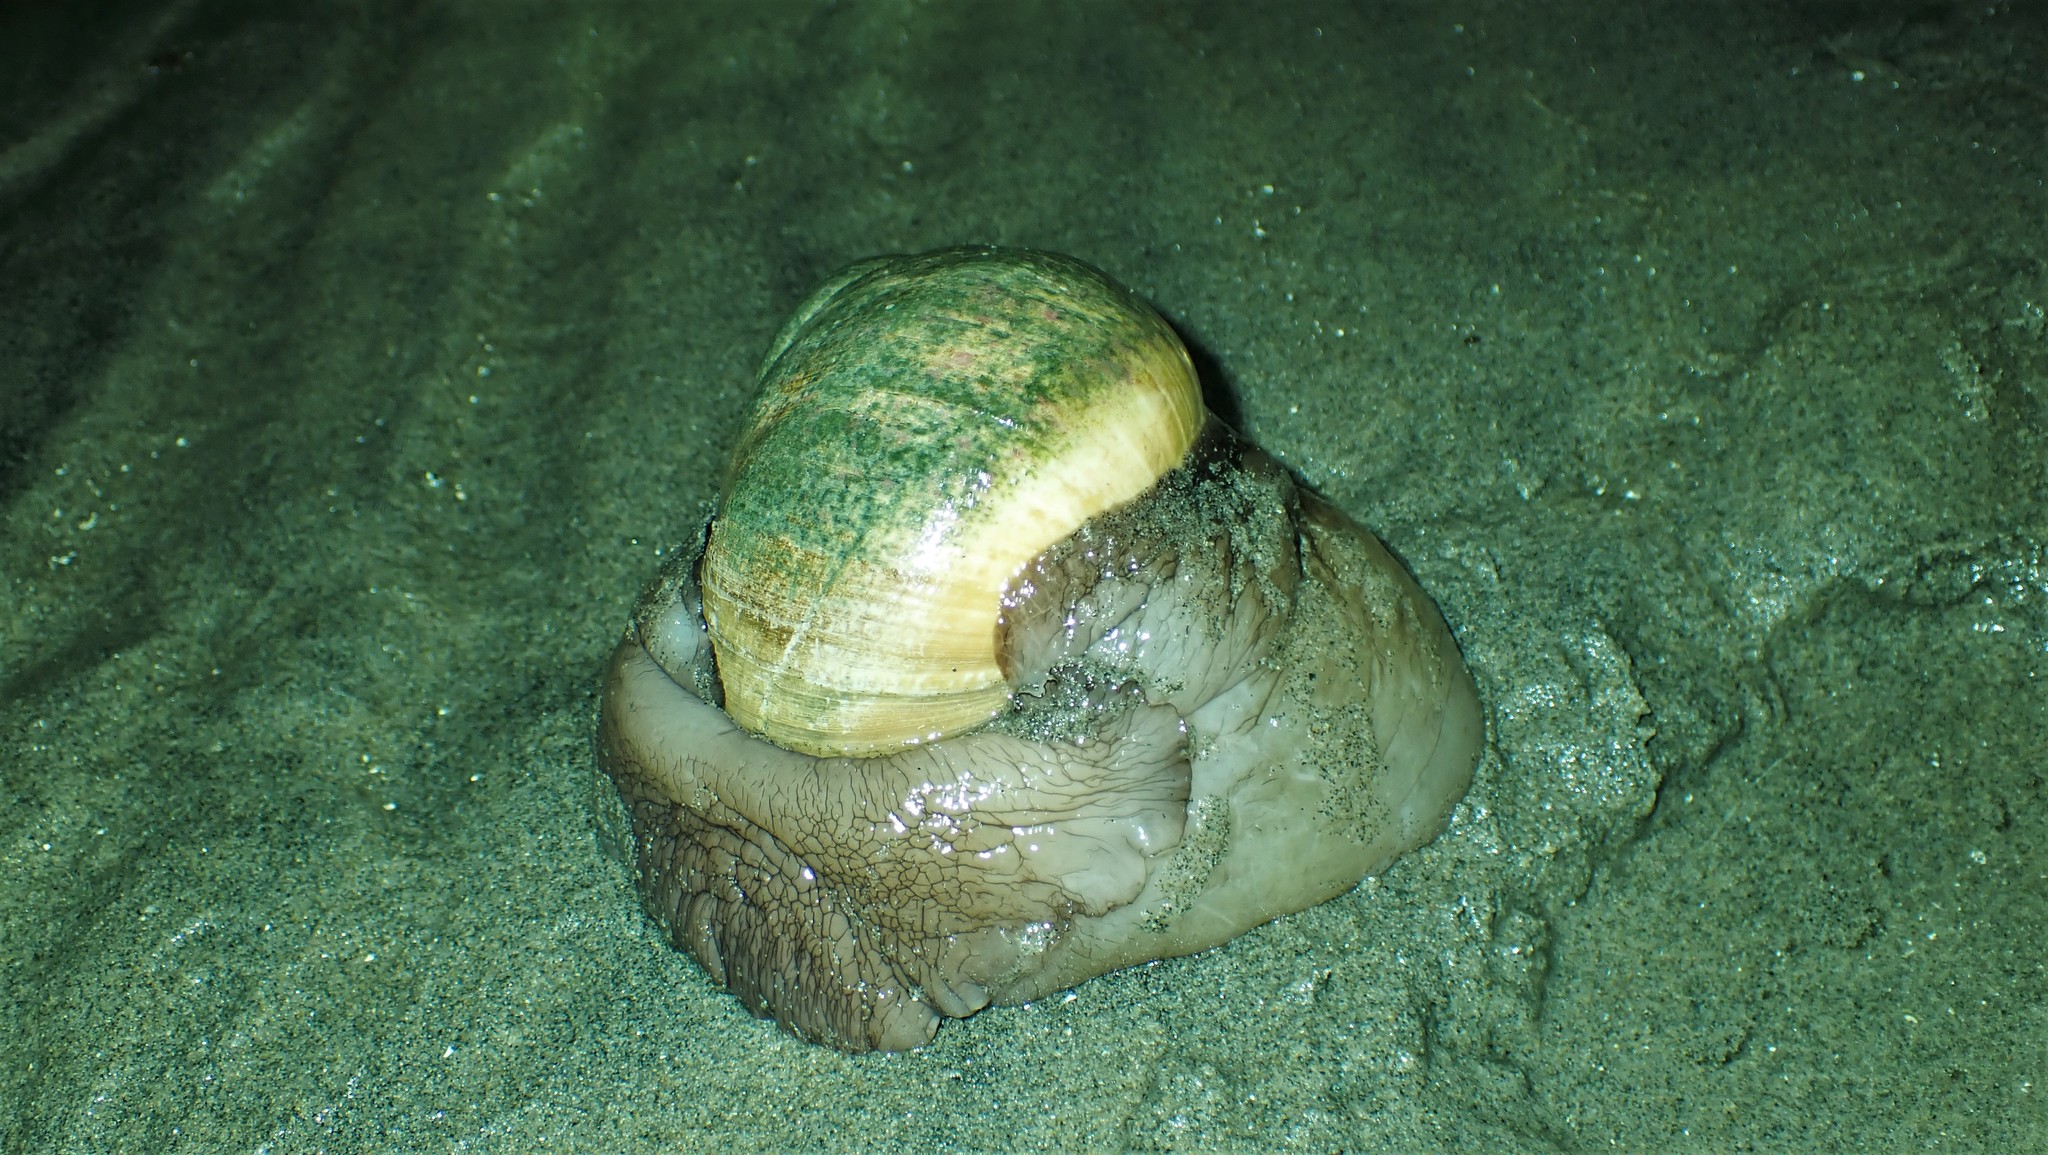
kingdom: Animalia
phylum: Mollusca
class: Gastropoda
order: Littorinimorpha
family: Naticidae
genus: Neverita
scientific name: Neverita lewisii
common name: Lewis' moonsnail
